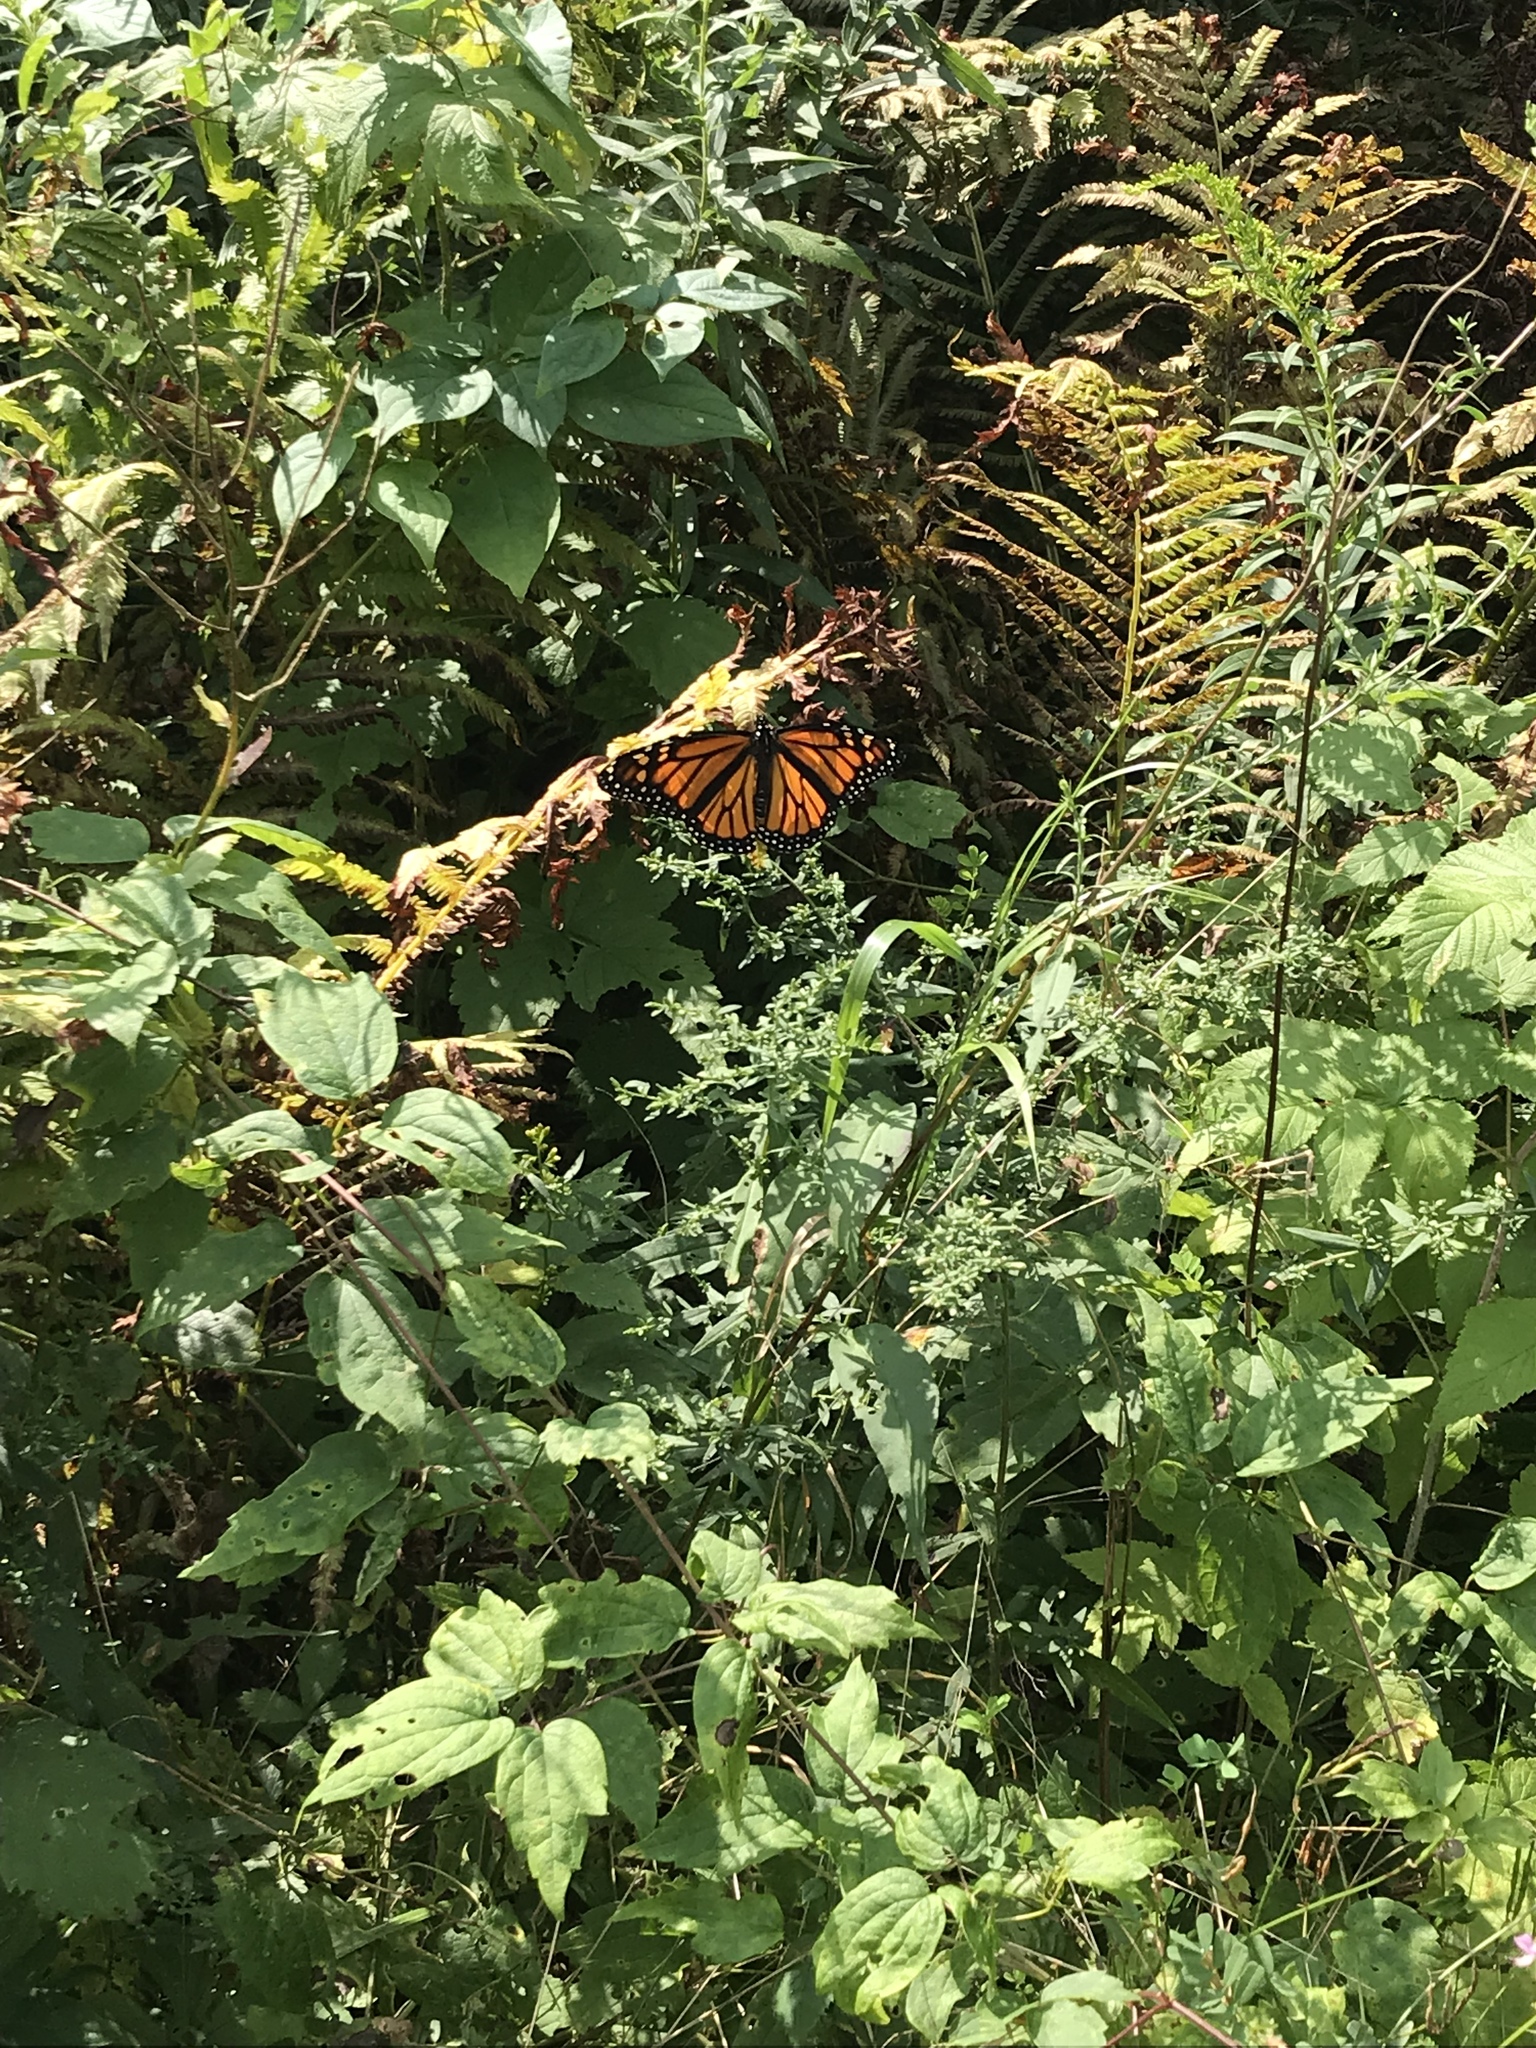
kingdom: Animalia
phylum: Arthropoda
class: Insecta
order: Lepidoptera
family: Nymphalidae
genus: Danaus
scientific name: Danaus plexippus
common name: Monarch
